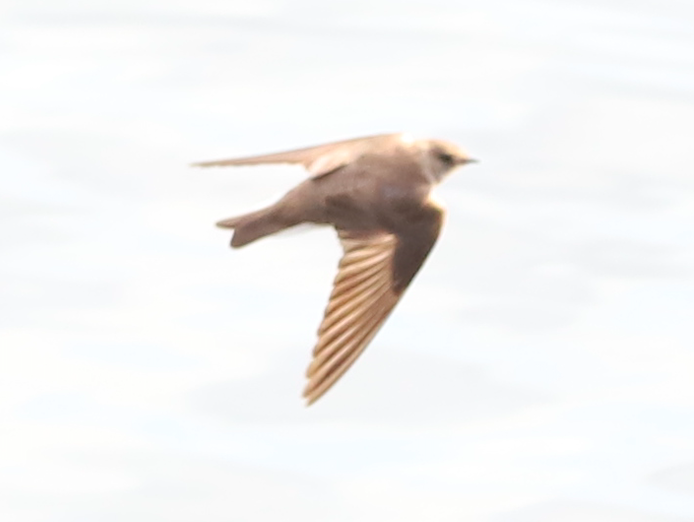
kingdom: Animalia
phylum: Chordata
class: Aves
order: Passeriformes
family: Hirundinidae
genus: Stelgidopteryx
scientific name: Stelgidopteryx serripennis
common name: Northern rough-winged swallow
